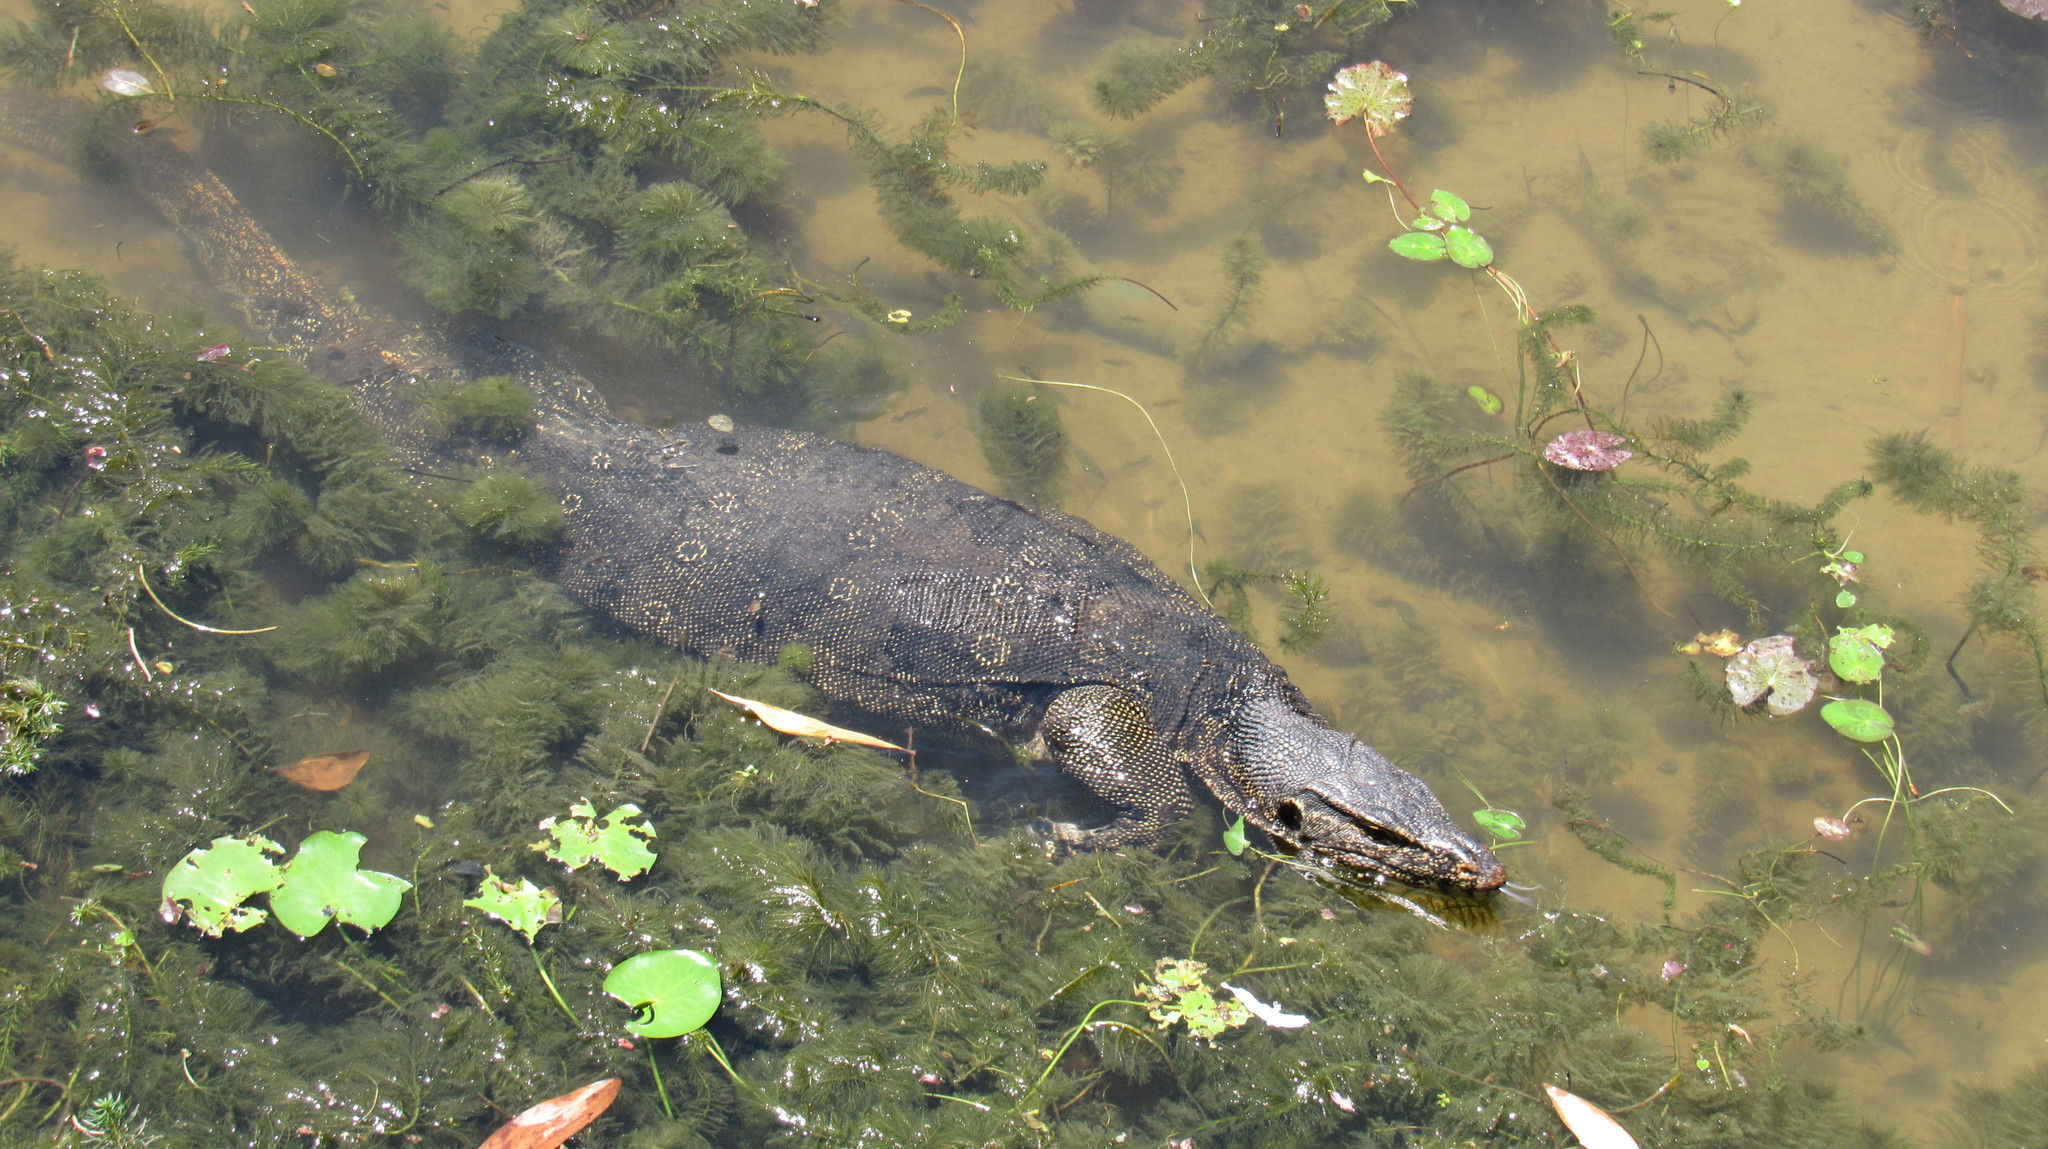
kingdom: Animalia
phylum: Chordata
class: Squamata
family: Varanidae
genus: Varanus
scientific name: Varanus salvator
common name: Common water monitor
